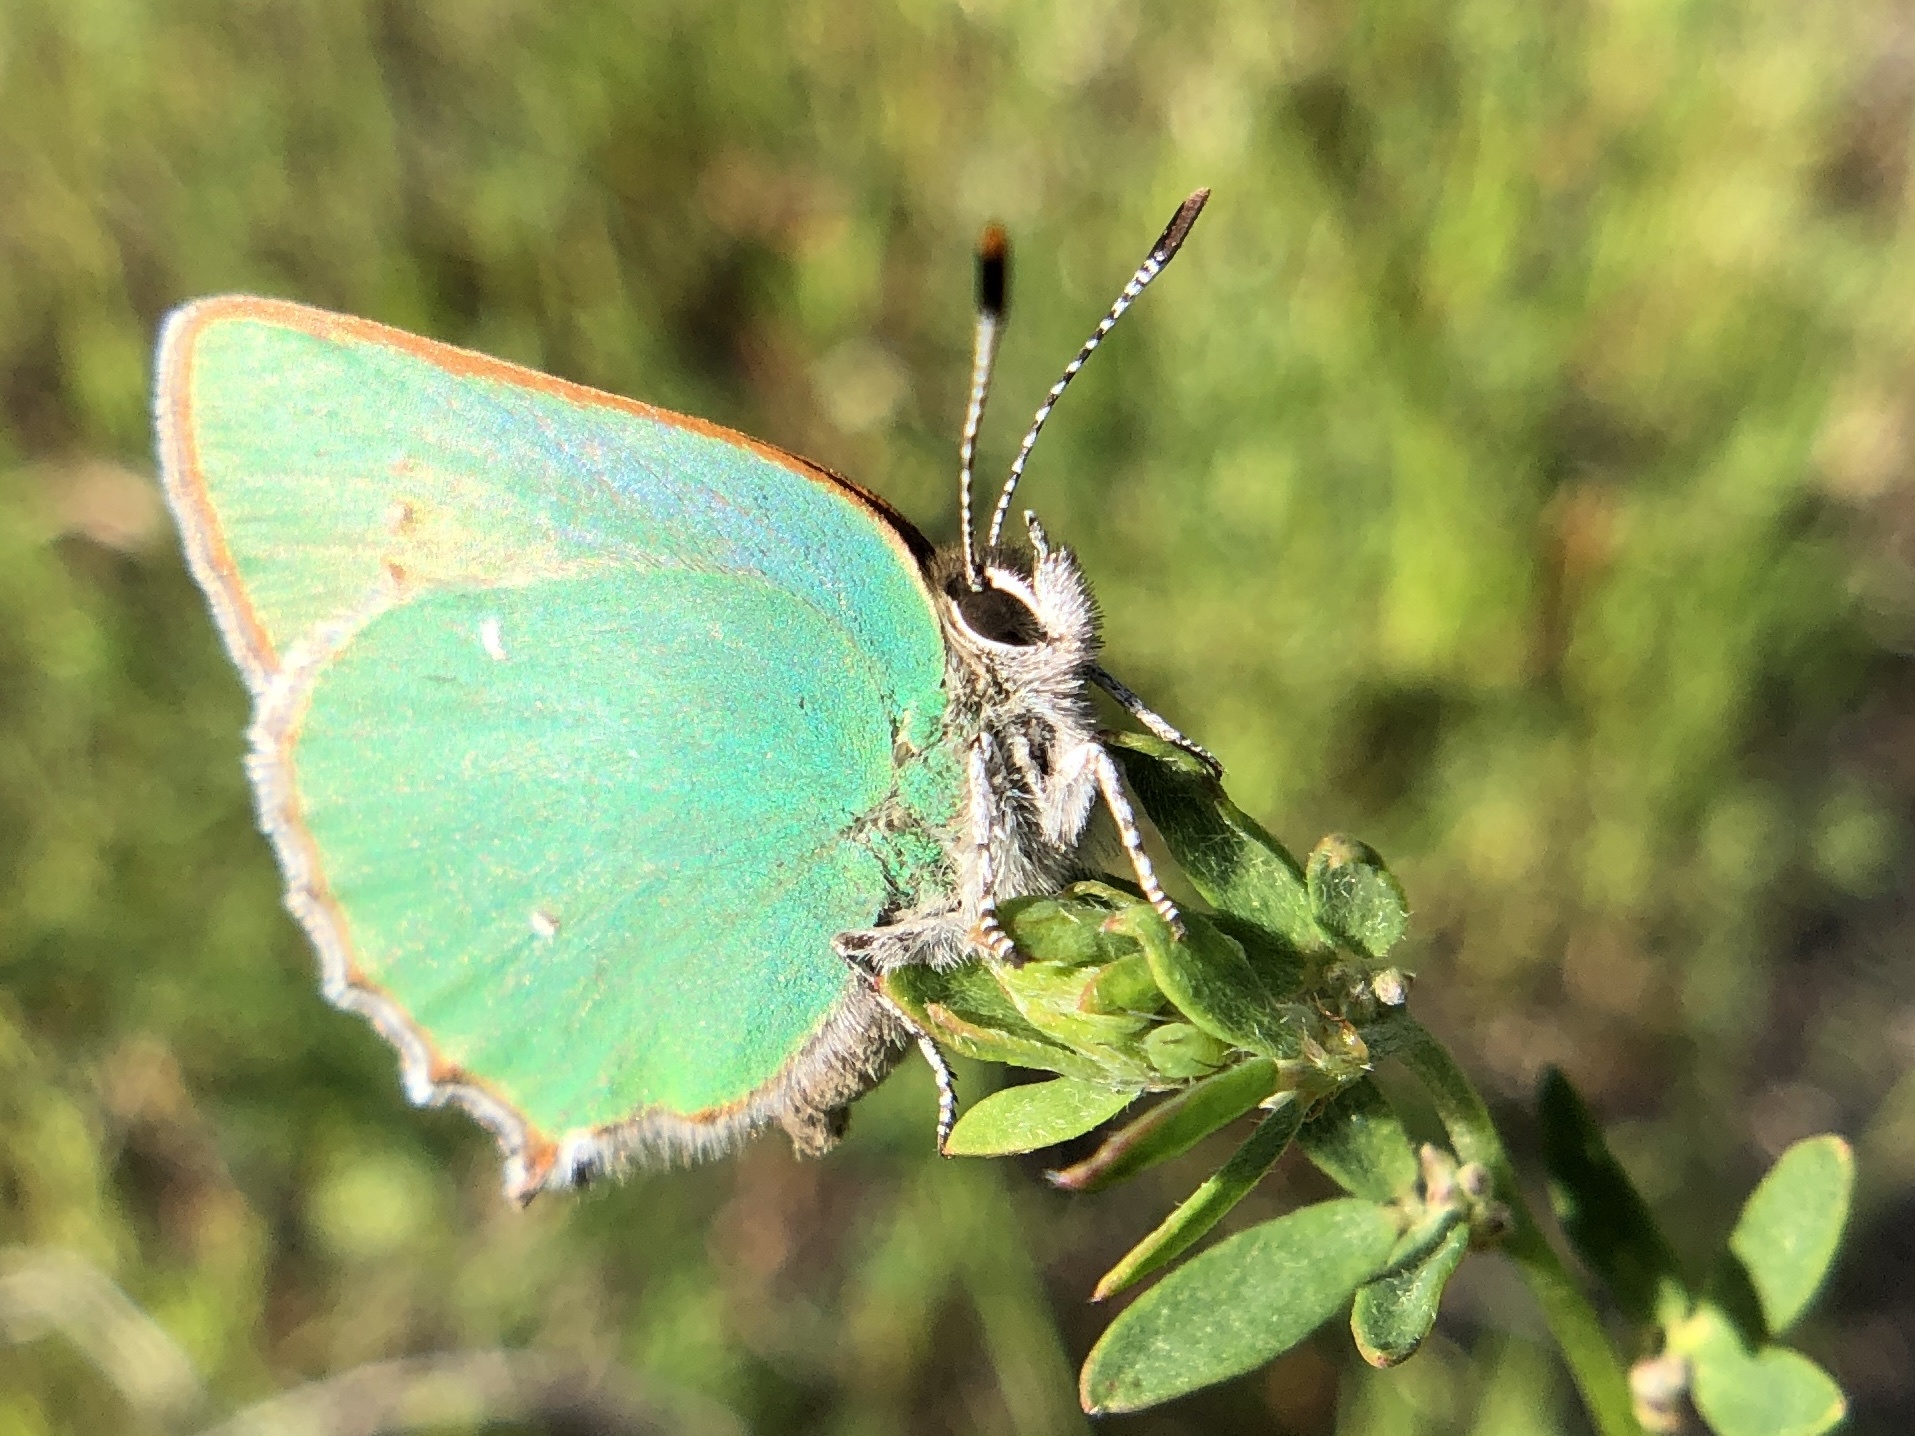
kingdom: Animalia
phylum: Arthropoda
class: Insecta
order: Lepidoptera
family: Lycaenidae
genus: Callophrys
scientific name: Callophrys dumetorum
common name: Bramble hairstreak
